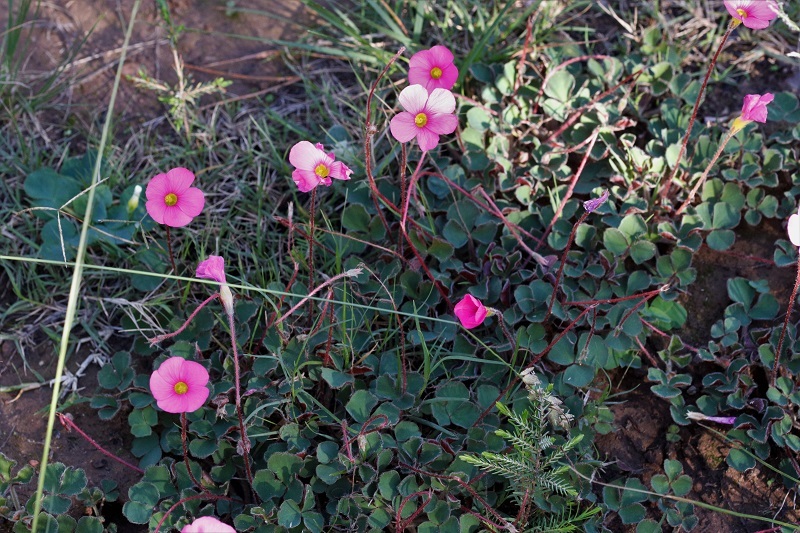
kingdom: Plantae
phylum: Tracheophyta
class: Magnoliopsida
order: Oxalidales
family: Oxalidaceae
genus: Oxalis
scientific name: Oxalis imbricata
